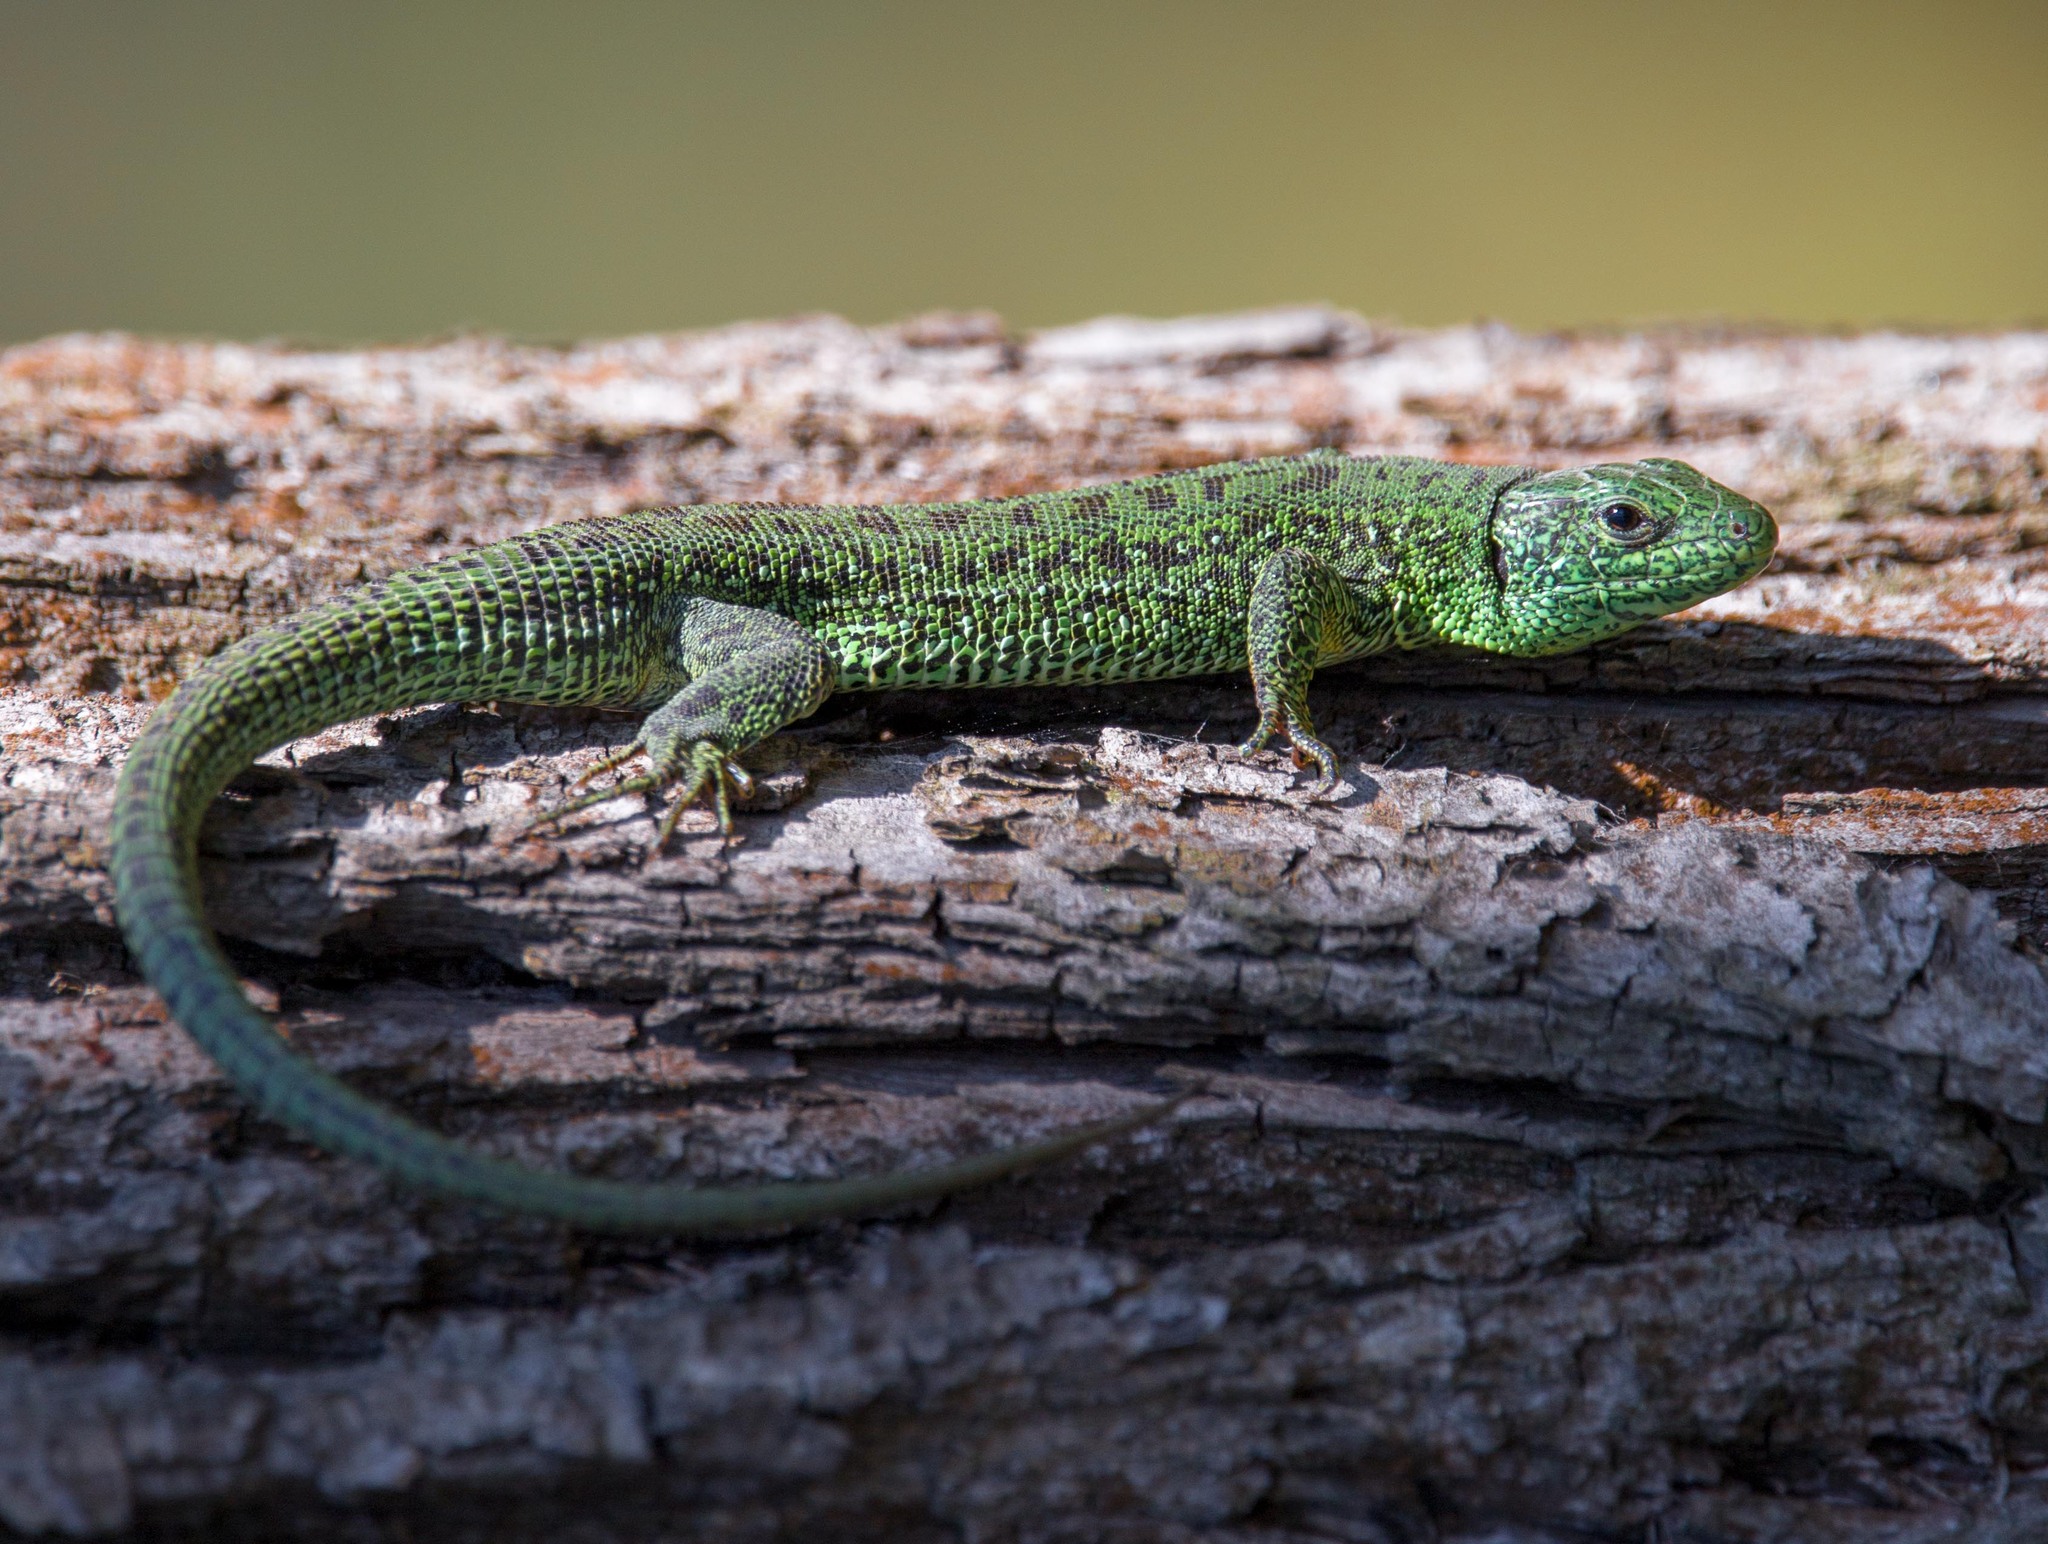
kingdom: Animalia
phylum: Chordata
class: Squamata
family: Lacertidae
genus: Lacerta
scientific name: Lacerta agilis
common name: Sand lizard
